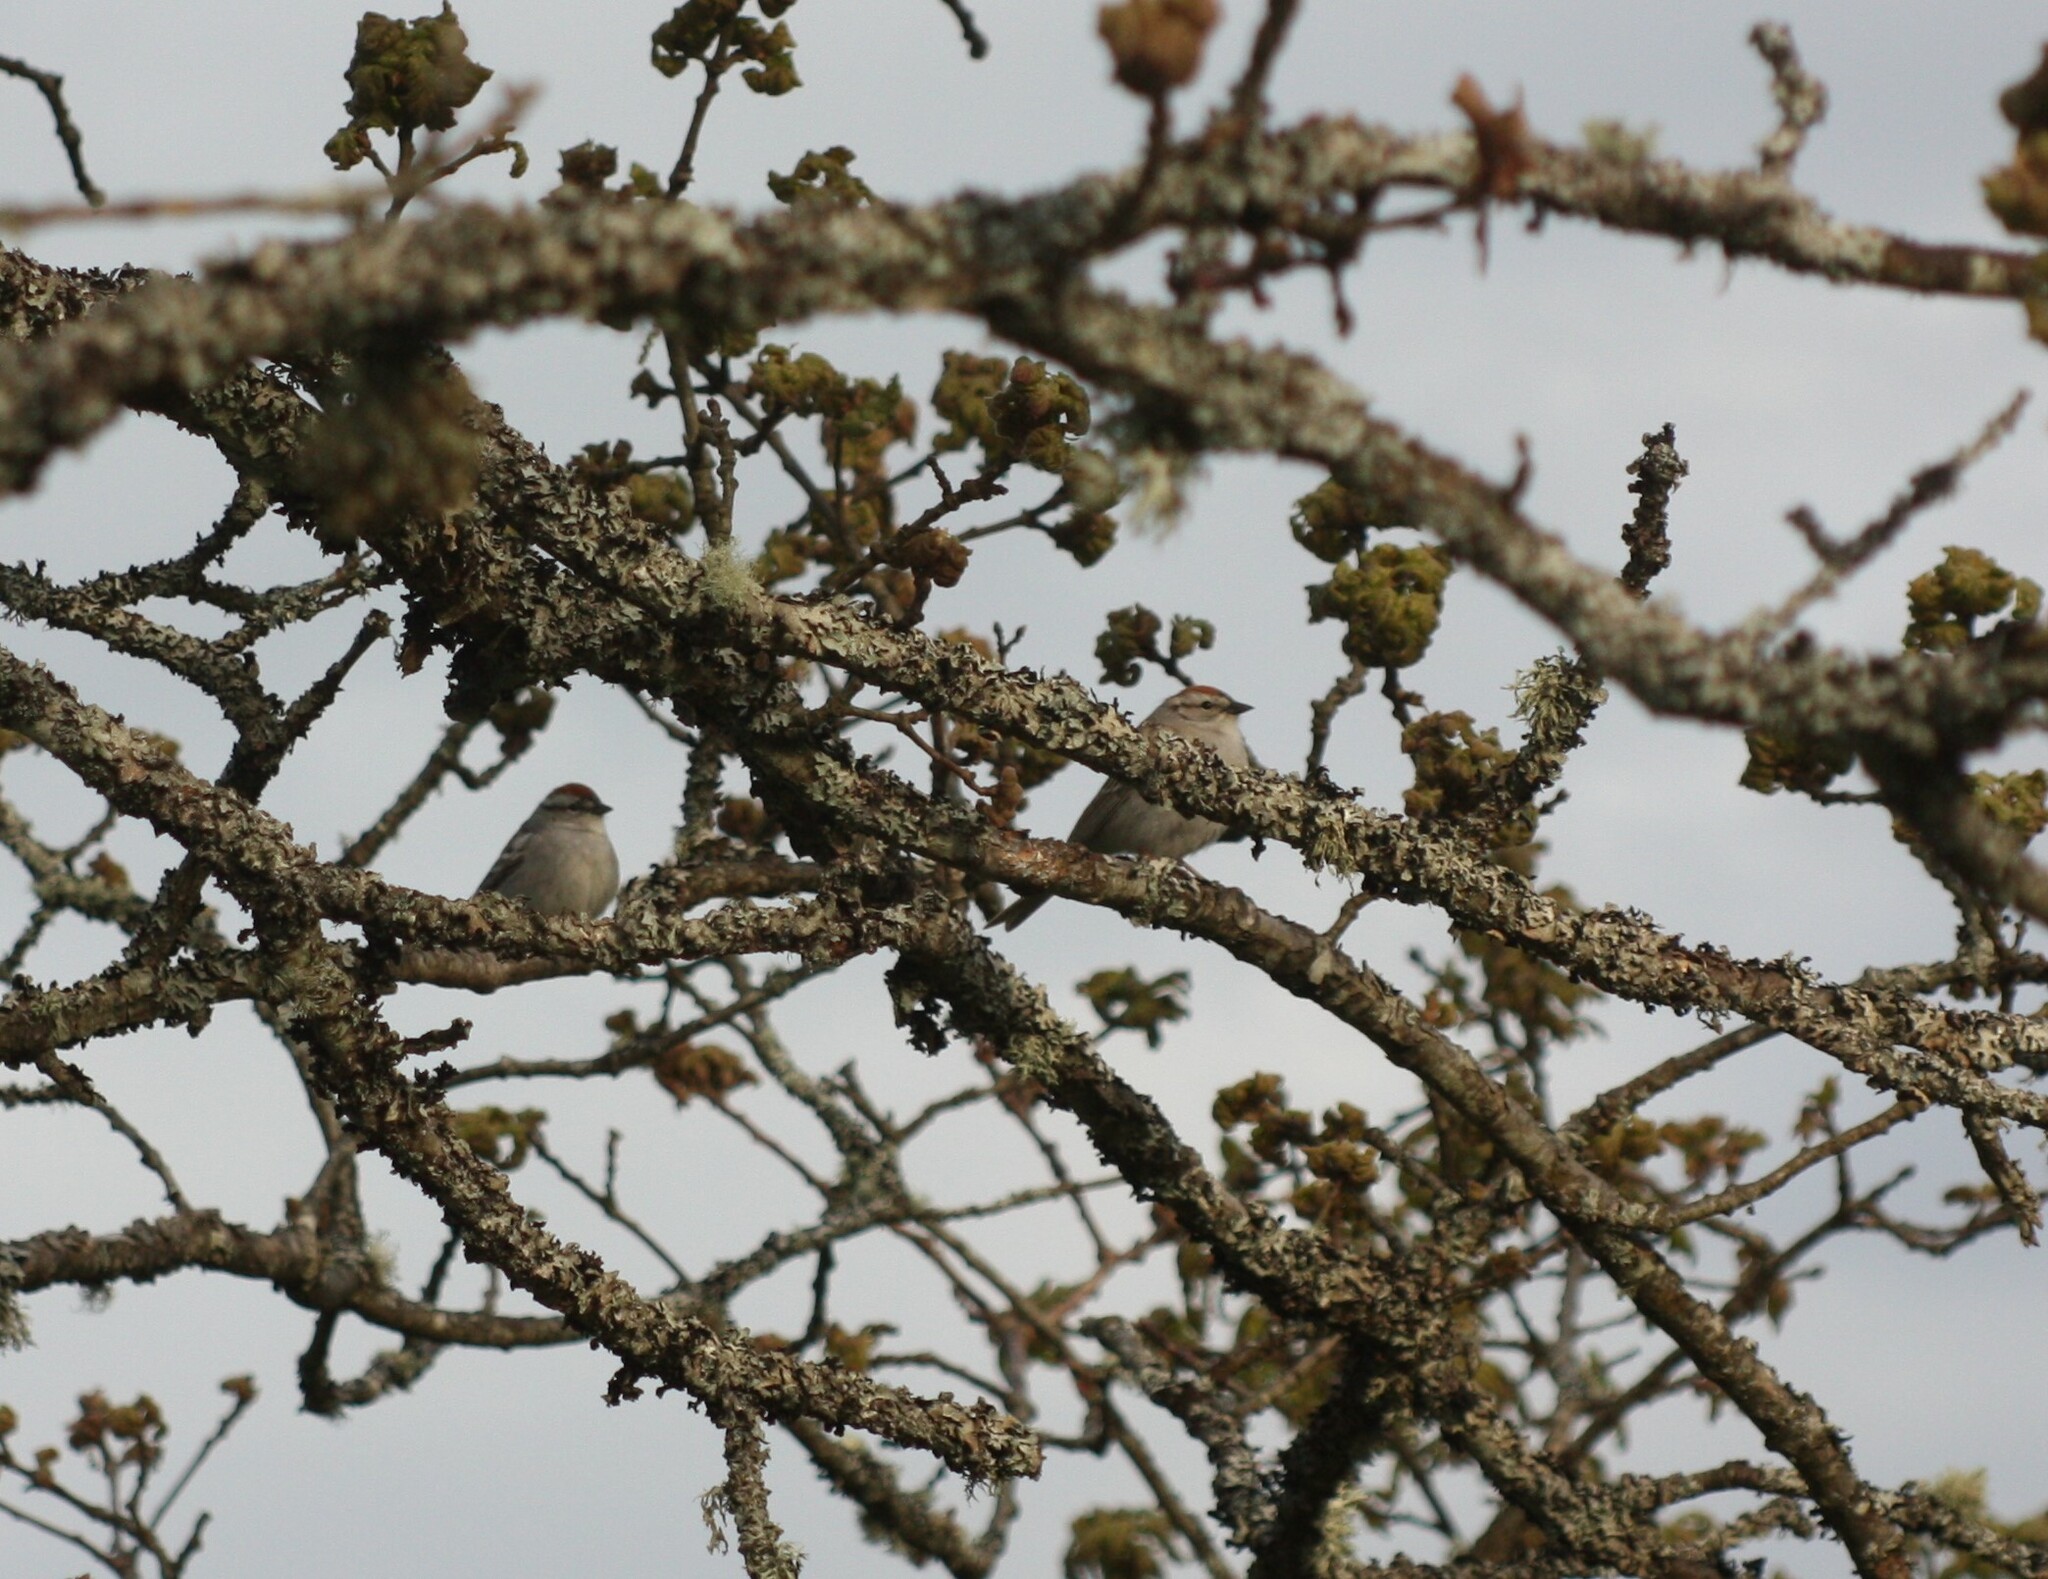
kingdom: Animalia
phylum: Chordata
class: Aves
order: Passeriformes
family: Passerellidae
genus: Spizella
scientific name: Spizella passerina
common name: Chipping sparrow
